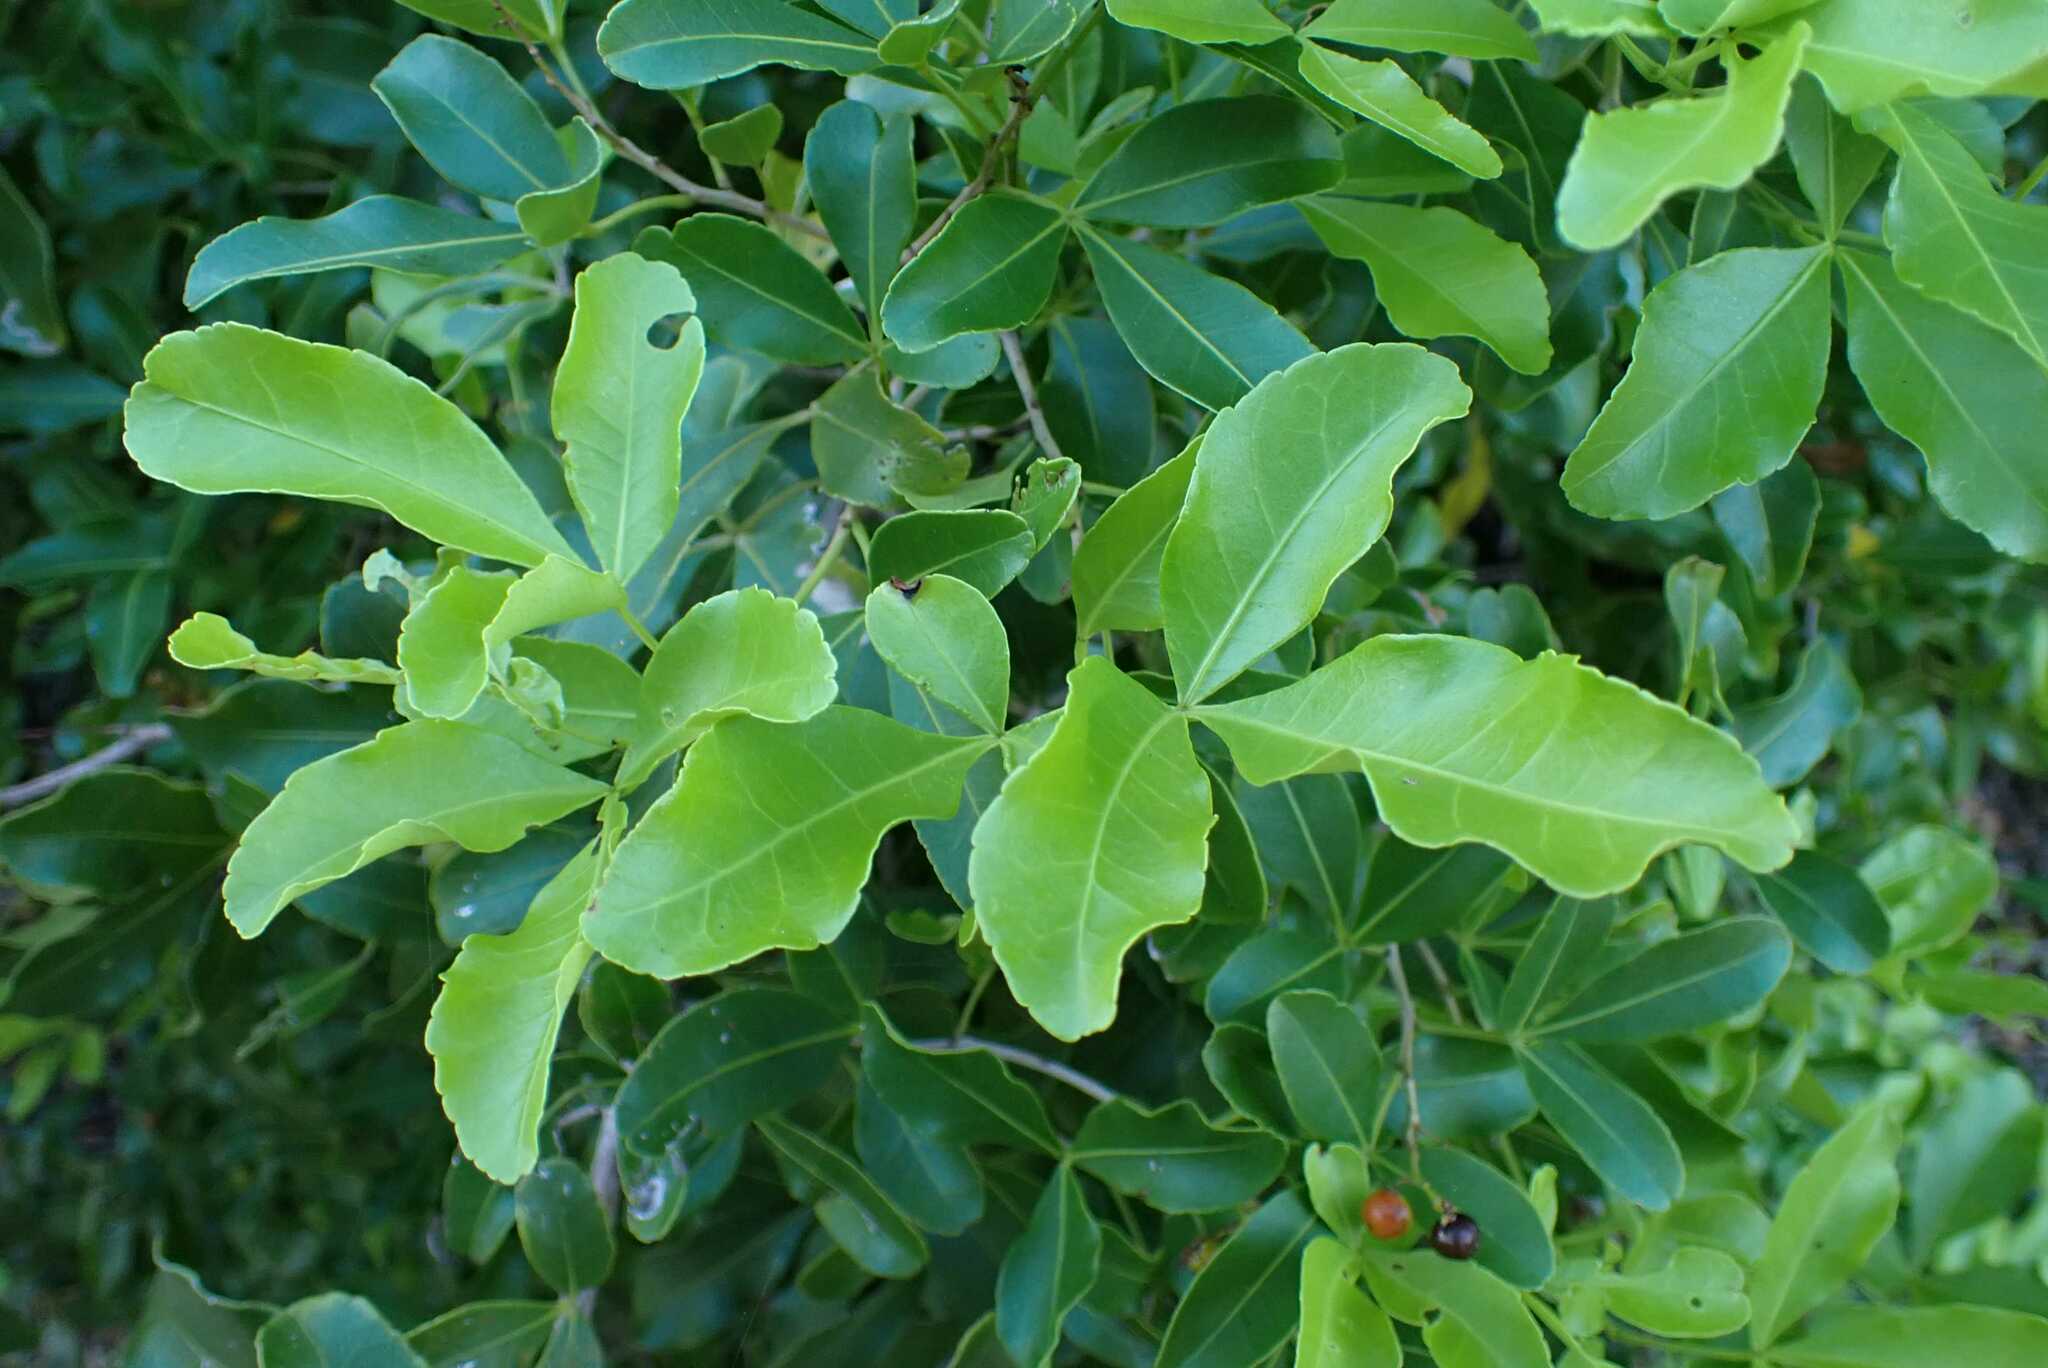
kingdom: Plantae
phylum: Tracheophyta
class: Magnoliopsida
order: Sapindales
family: Anacardiaceae
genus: Searsia
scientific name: Searsia natalensis
